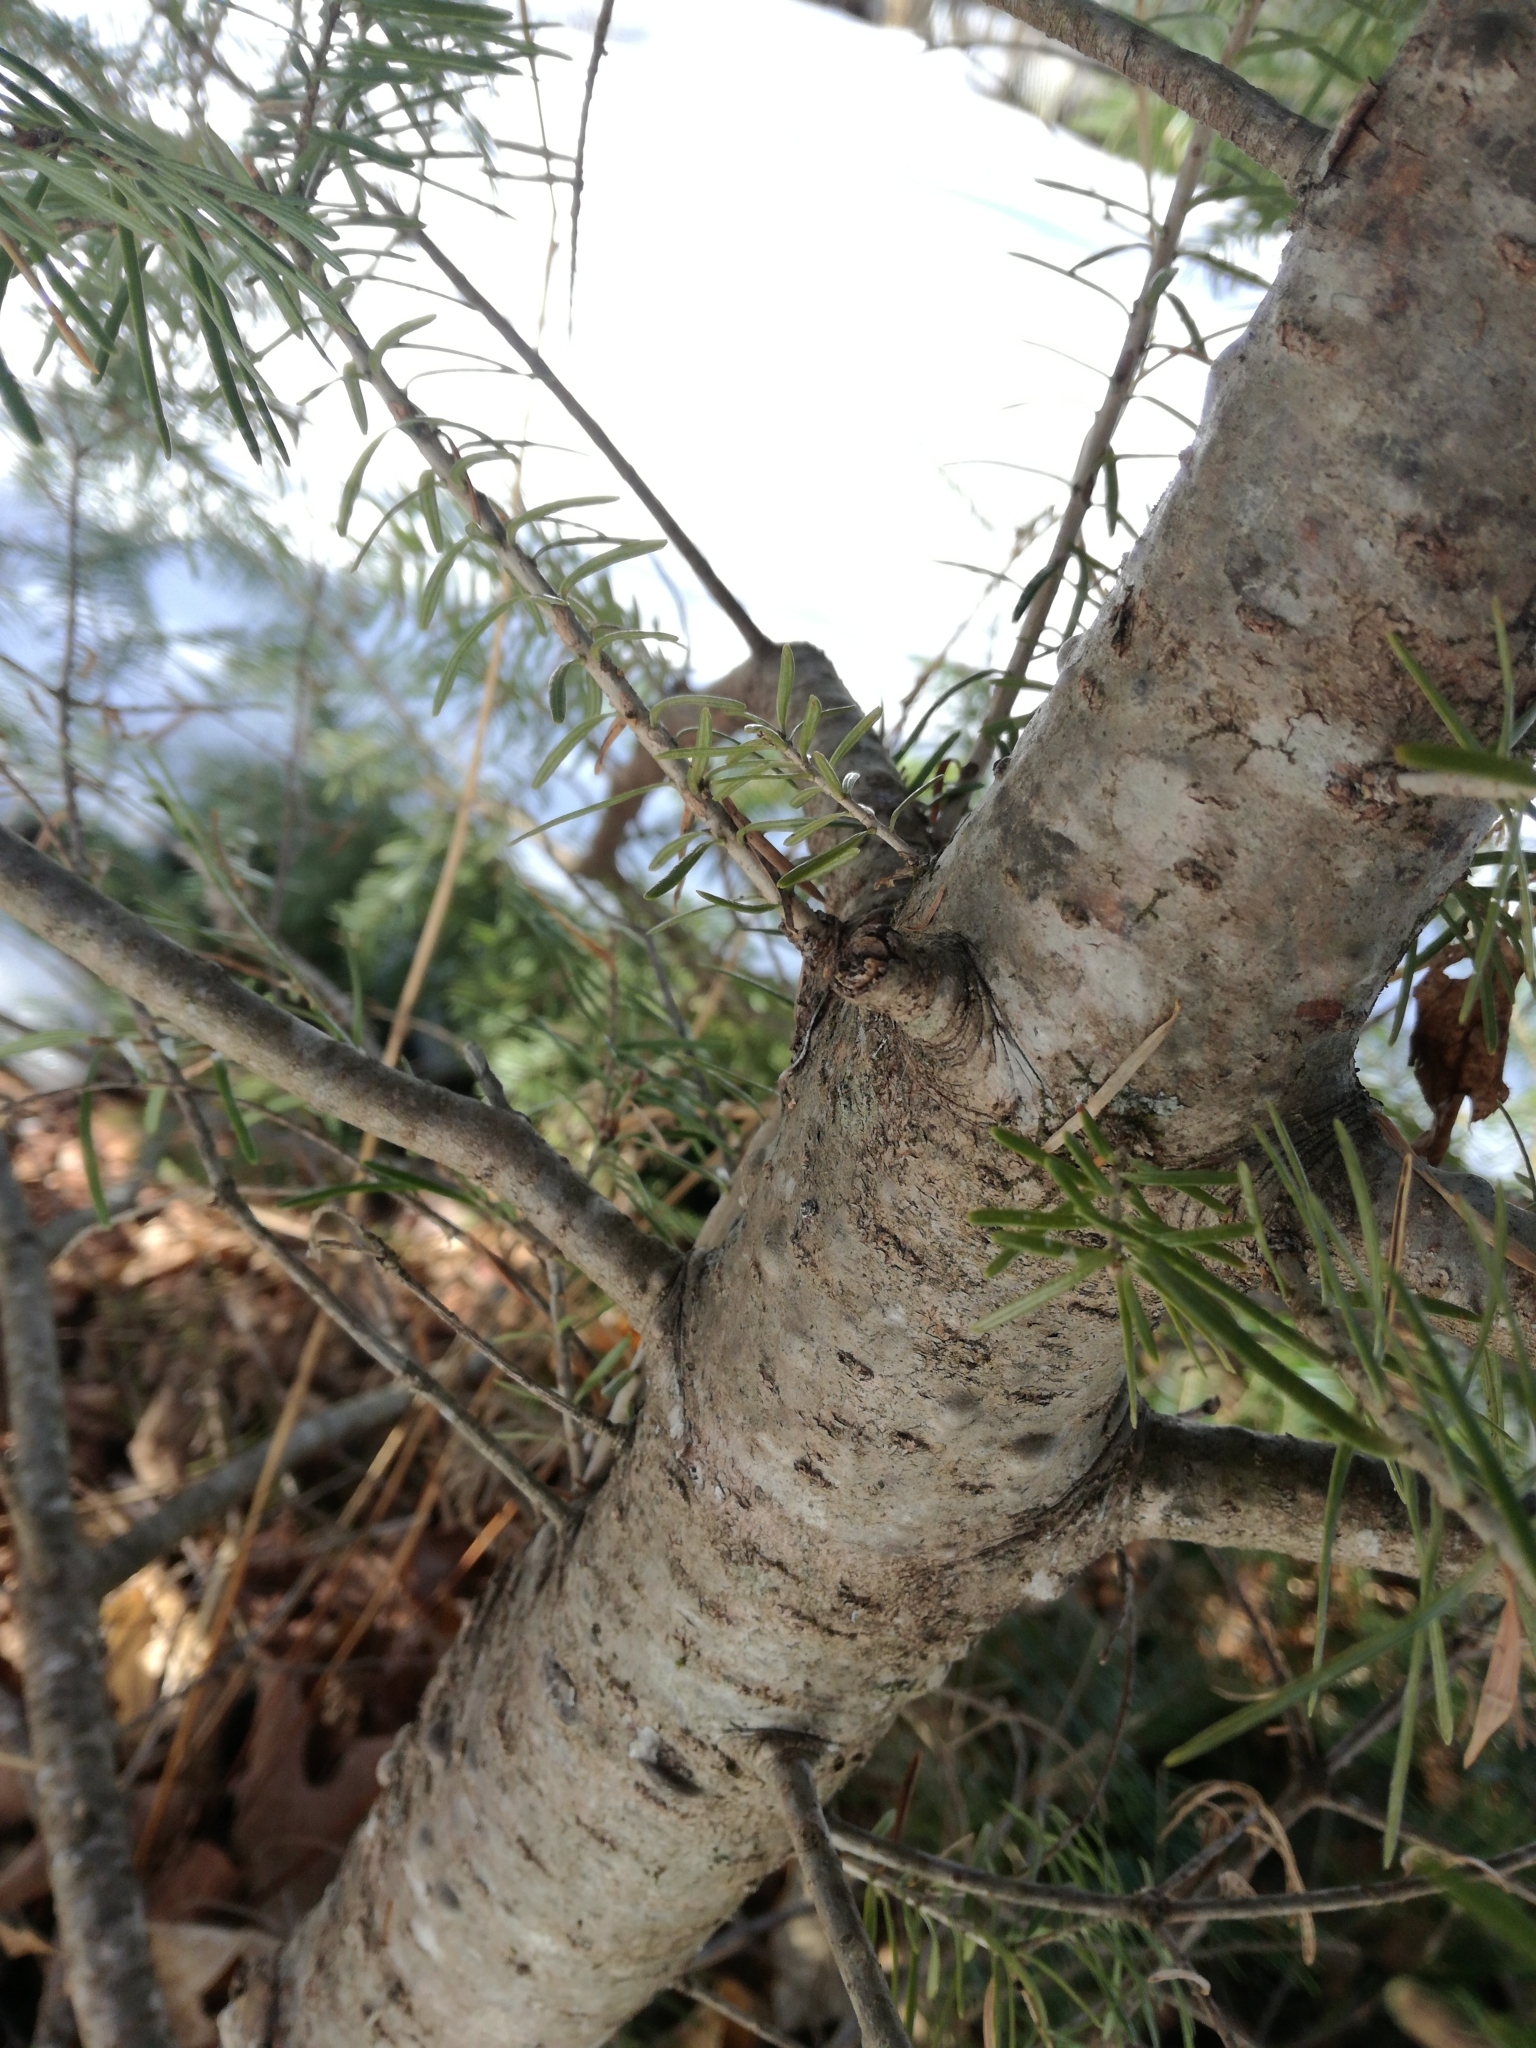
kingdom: Plantae
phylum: Tracheophyta
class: Pinopsida
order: Pinales
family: Pinaceae
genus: Abies
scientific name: Abies balsamea
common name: Balsam fir
